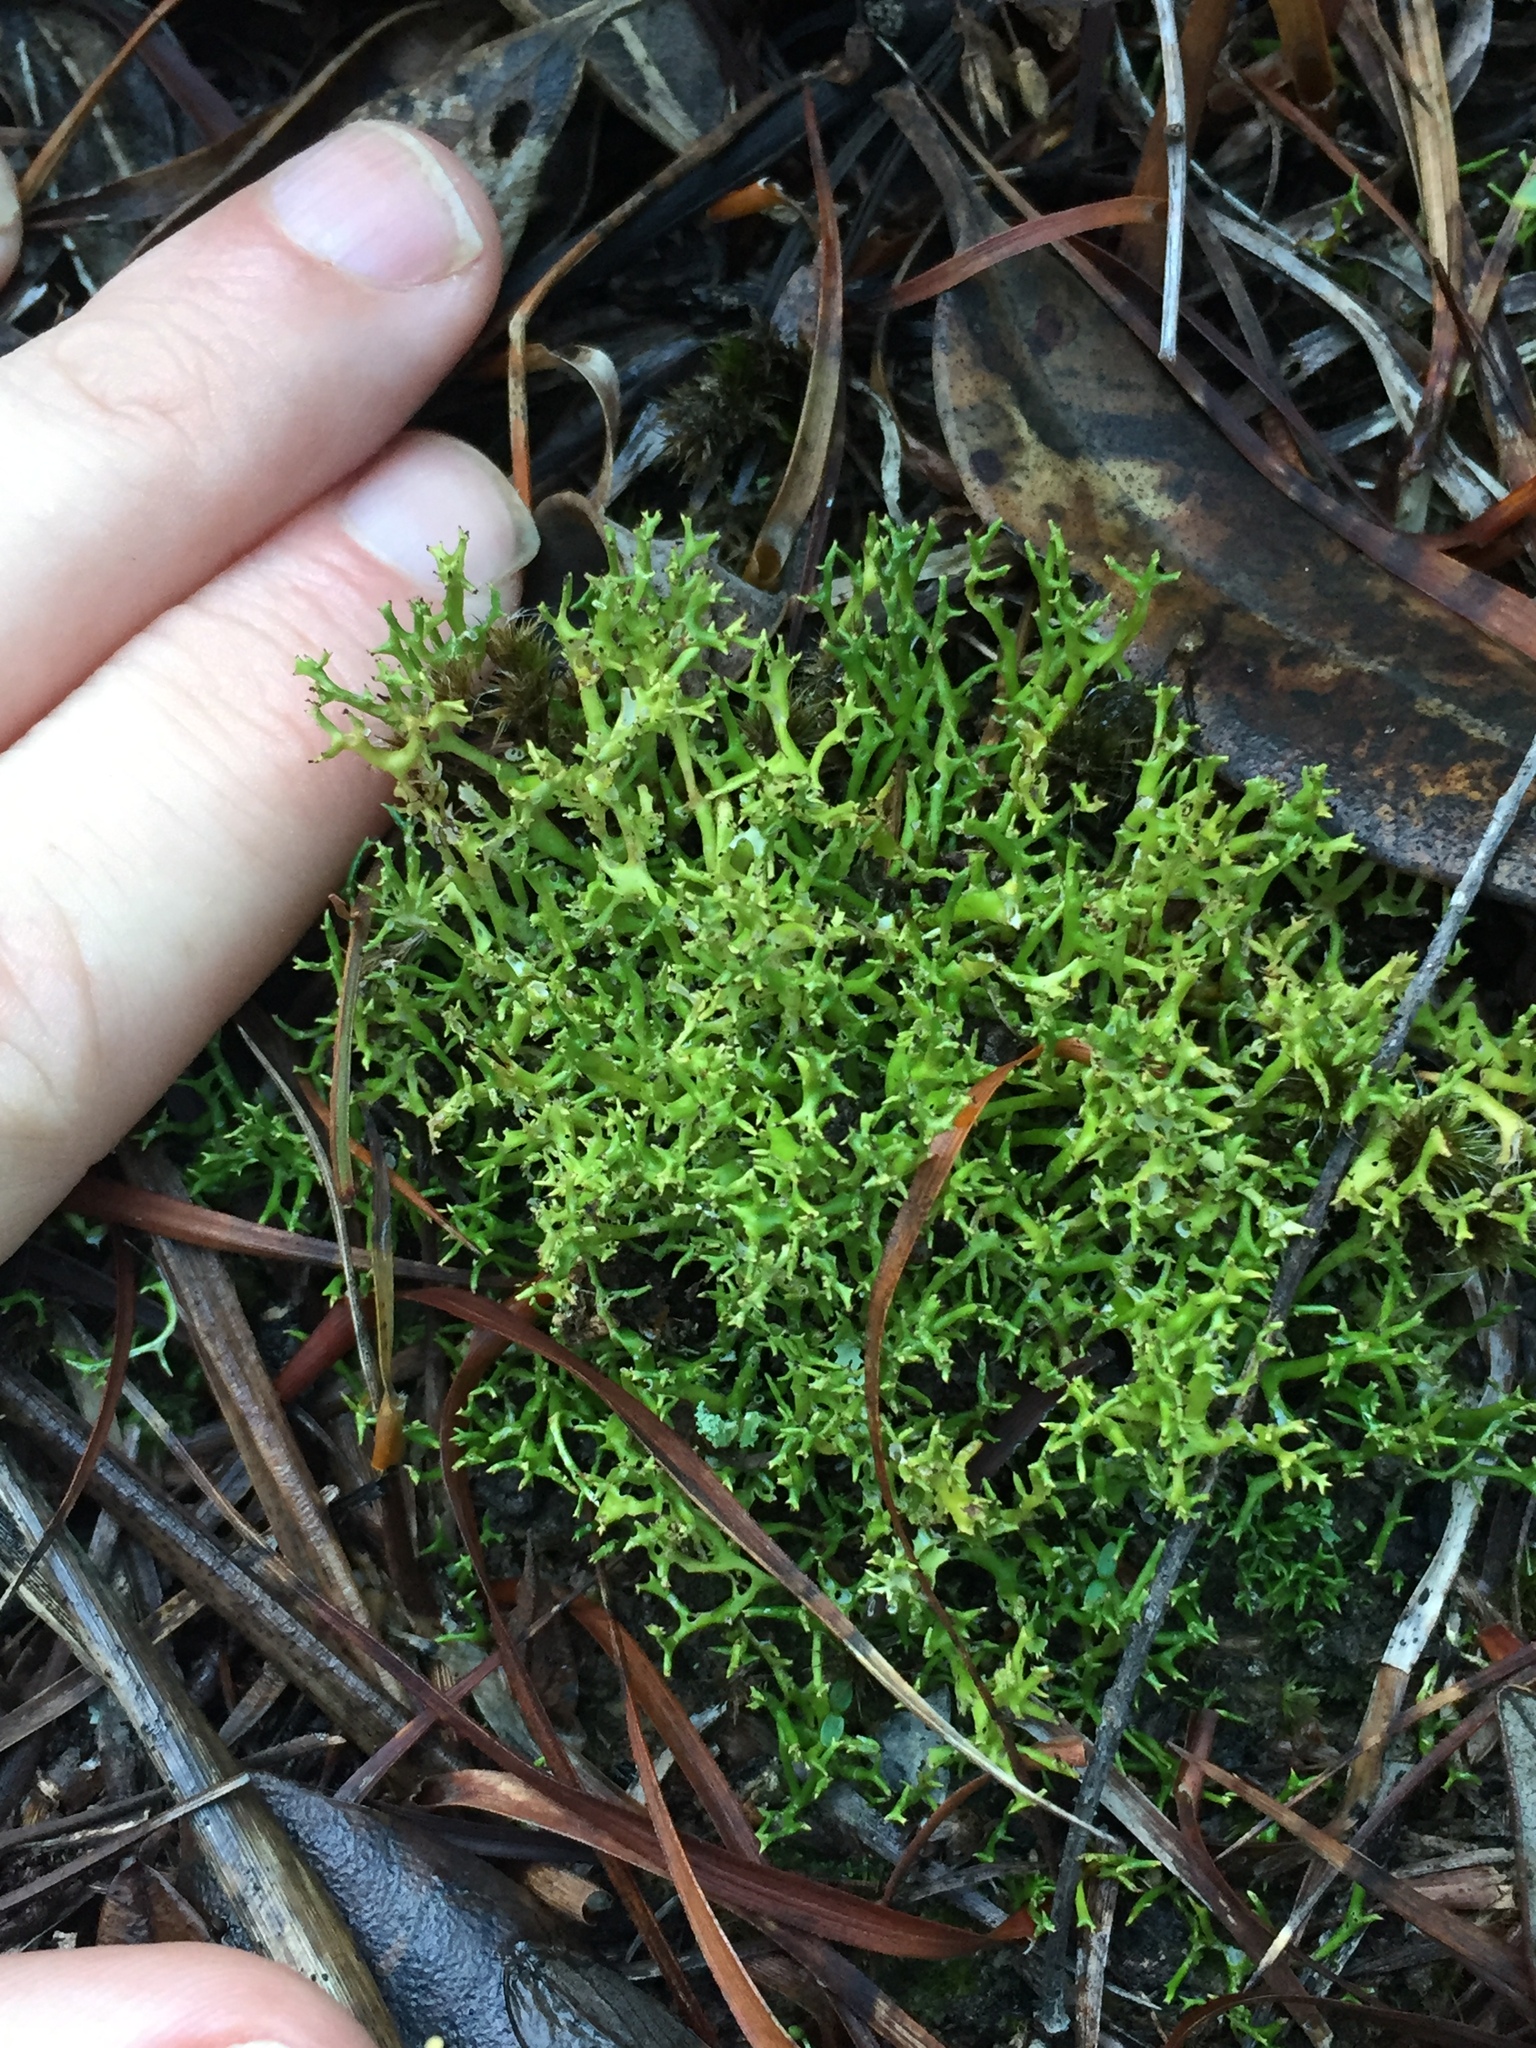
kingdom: Fungi
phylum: Ascomycota
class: Lecanoromycetes
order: Lecanorales
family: Cladoniaceae
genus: Cladia
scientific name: Cladia inflata
